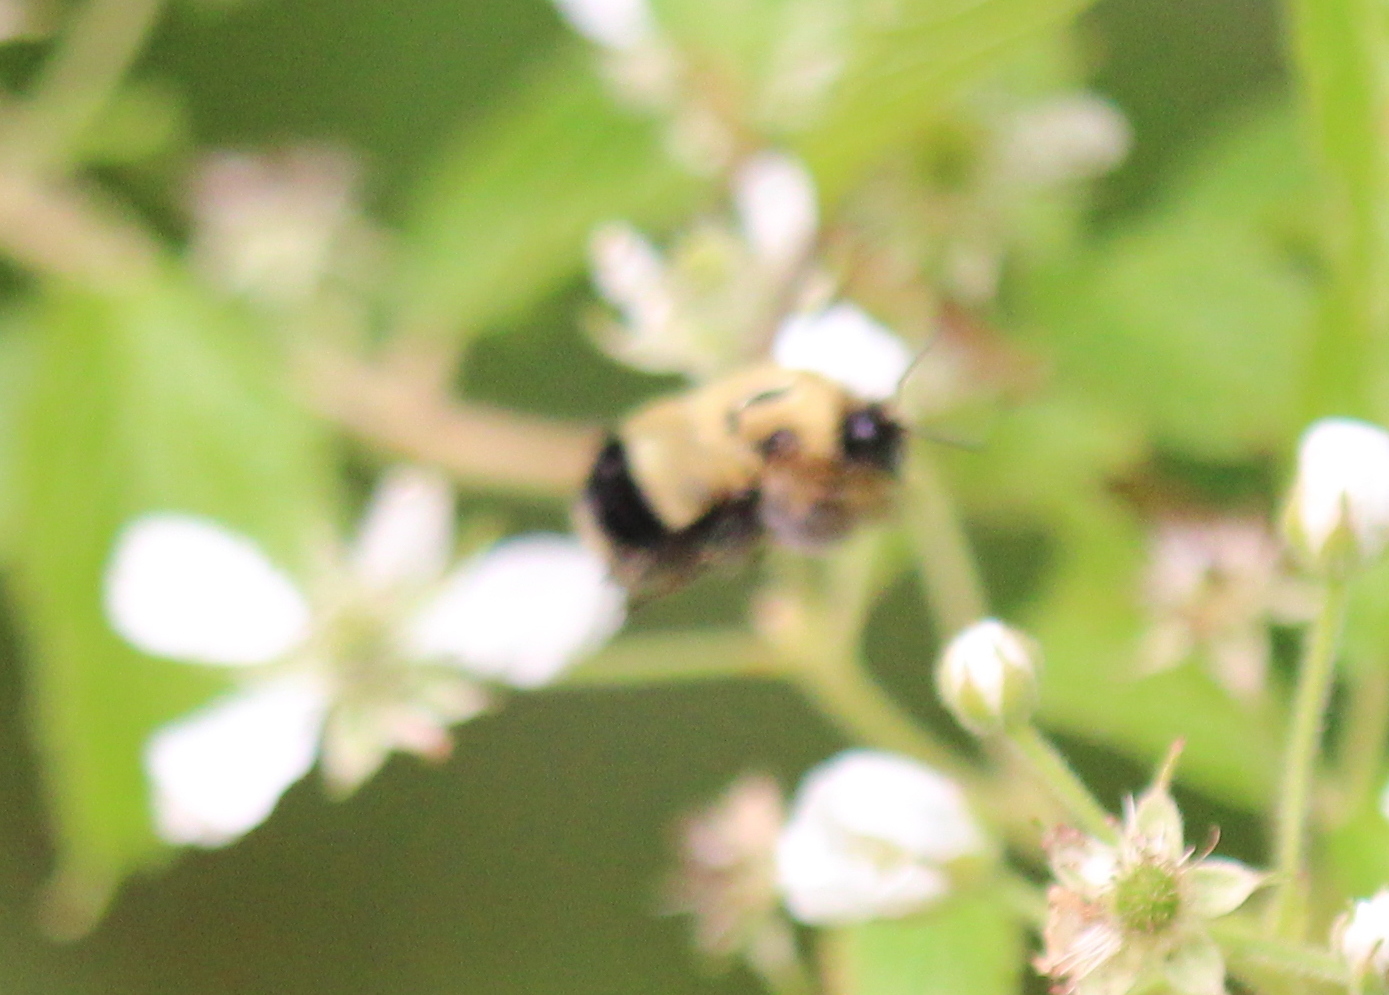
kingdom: Animalia
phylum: Arthropoda
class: Insecta
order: Hymenoptera
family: Apidae
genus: Pyrobombus
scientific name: Pyrobombus
